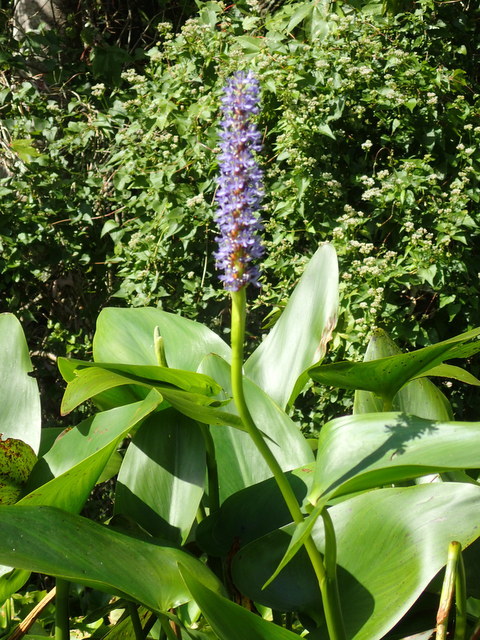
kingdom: Plantae
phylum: Tracheophyta
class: Liliopsida
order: Commelinales
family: Pontederiaceae
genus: Pontederia
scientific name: Pontederia cordata
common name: Pickerelweed
